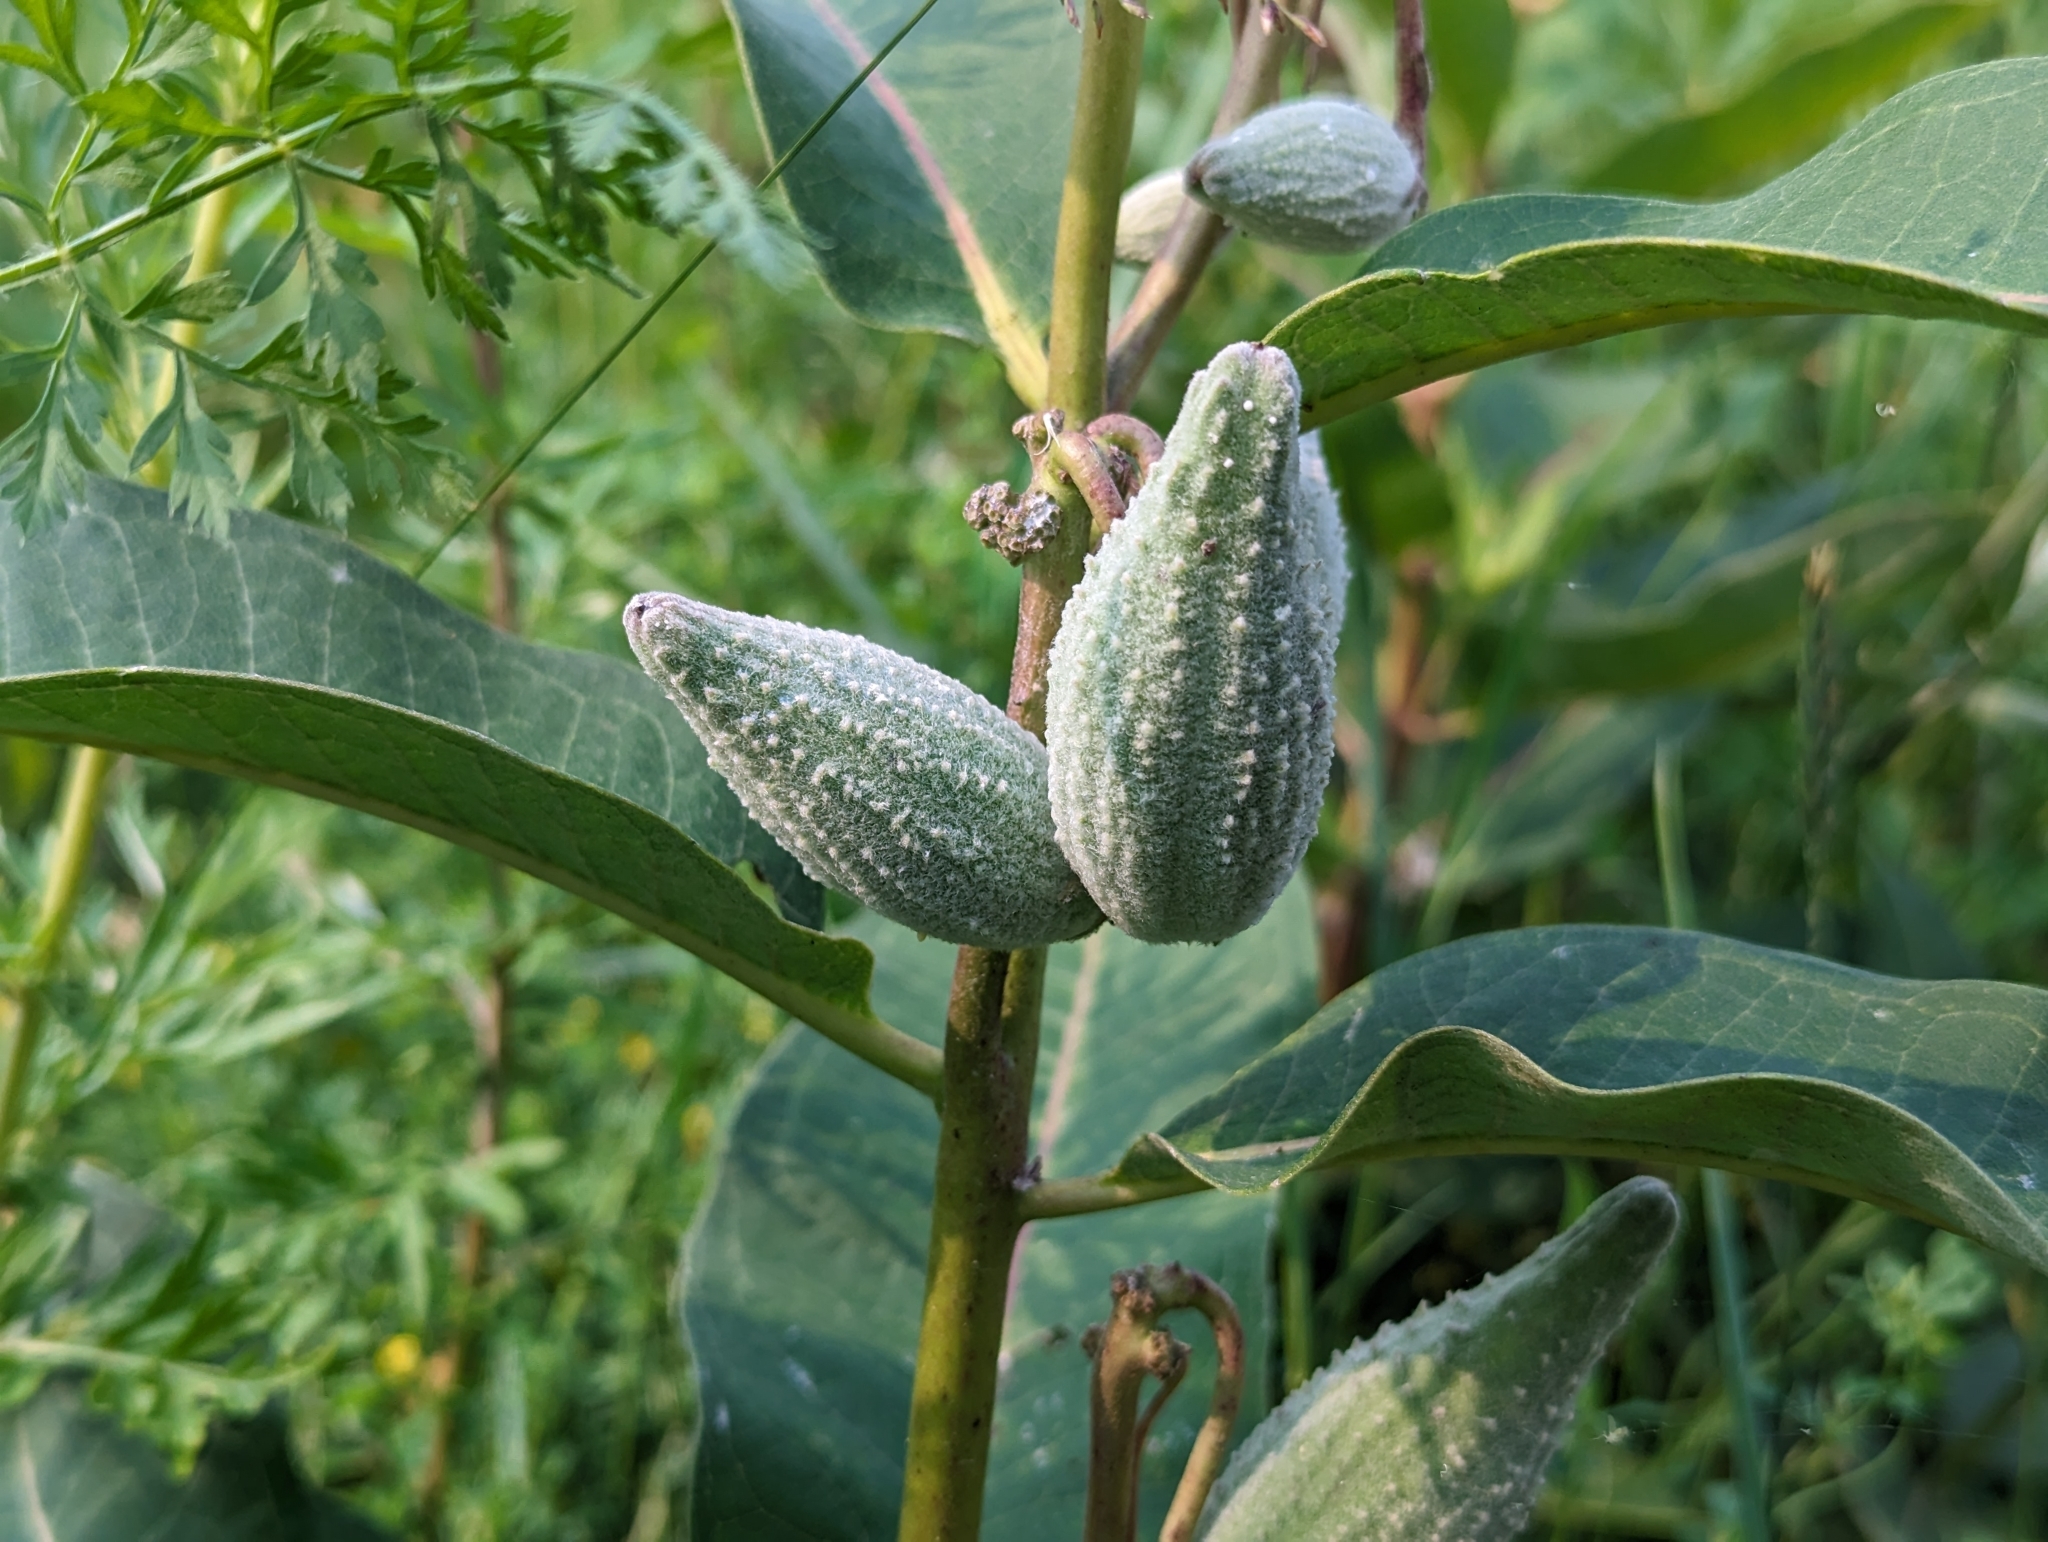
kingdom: Plantae
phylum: Tracheophyta
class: Magnoliopsida
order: Gentianales
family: Apocynaceae
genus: Asclepias
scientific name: Asclepias syriaca
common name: Common milkweed
